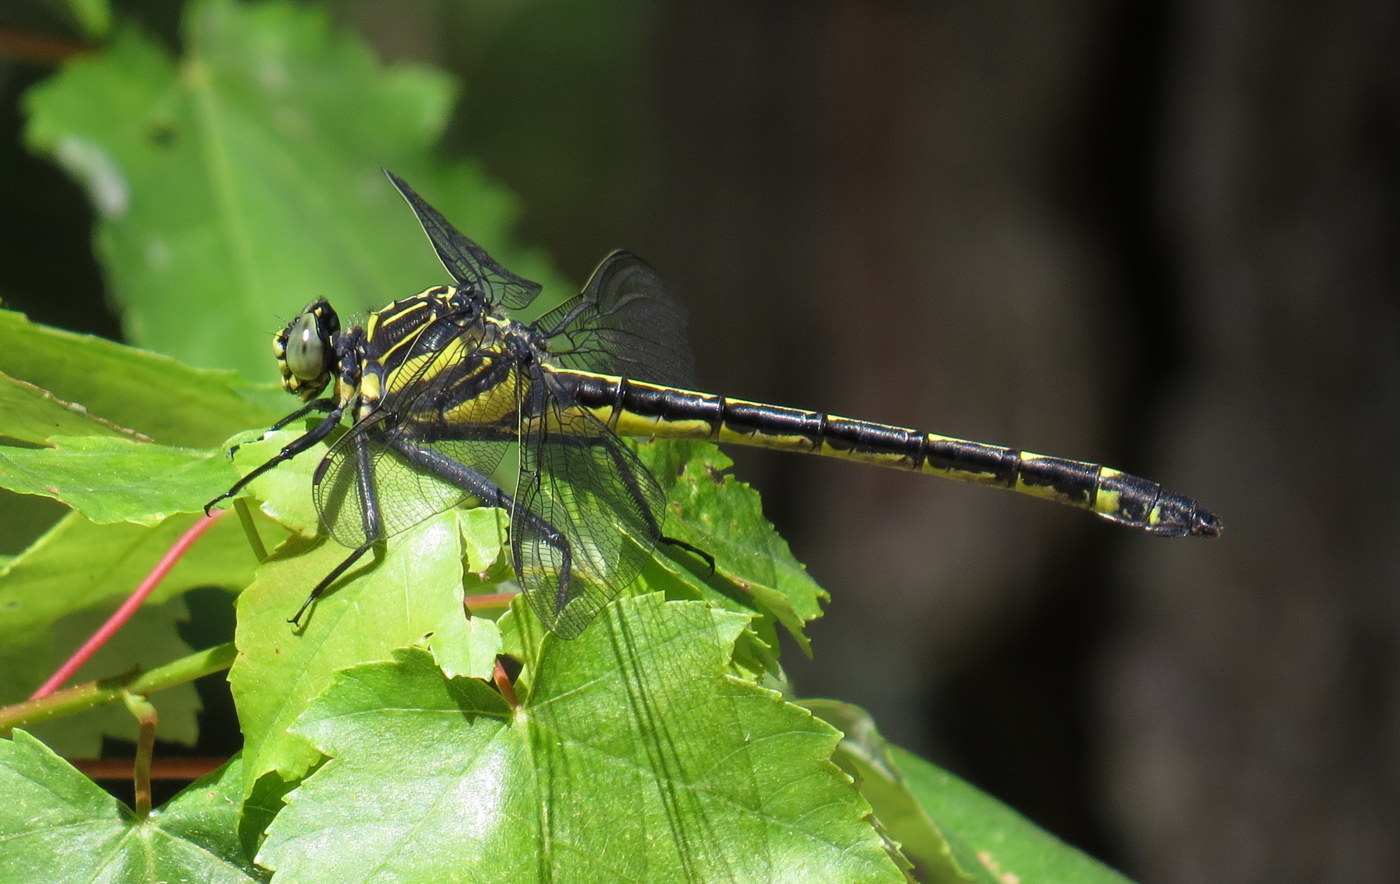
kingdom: Animalia
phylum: Arthropoda
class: Insecta
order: Odonata
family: Gomphidae
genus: Hagenius
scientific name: Hagenius brevistylus
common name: Dragonhunter
